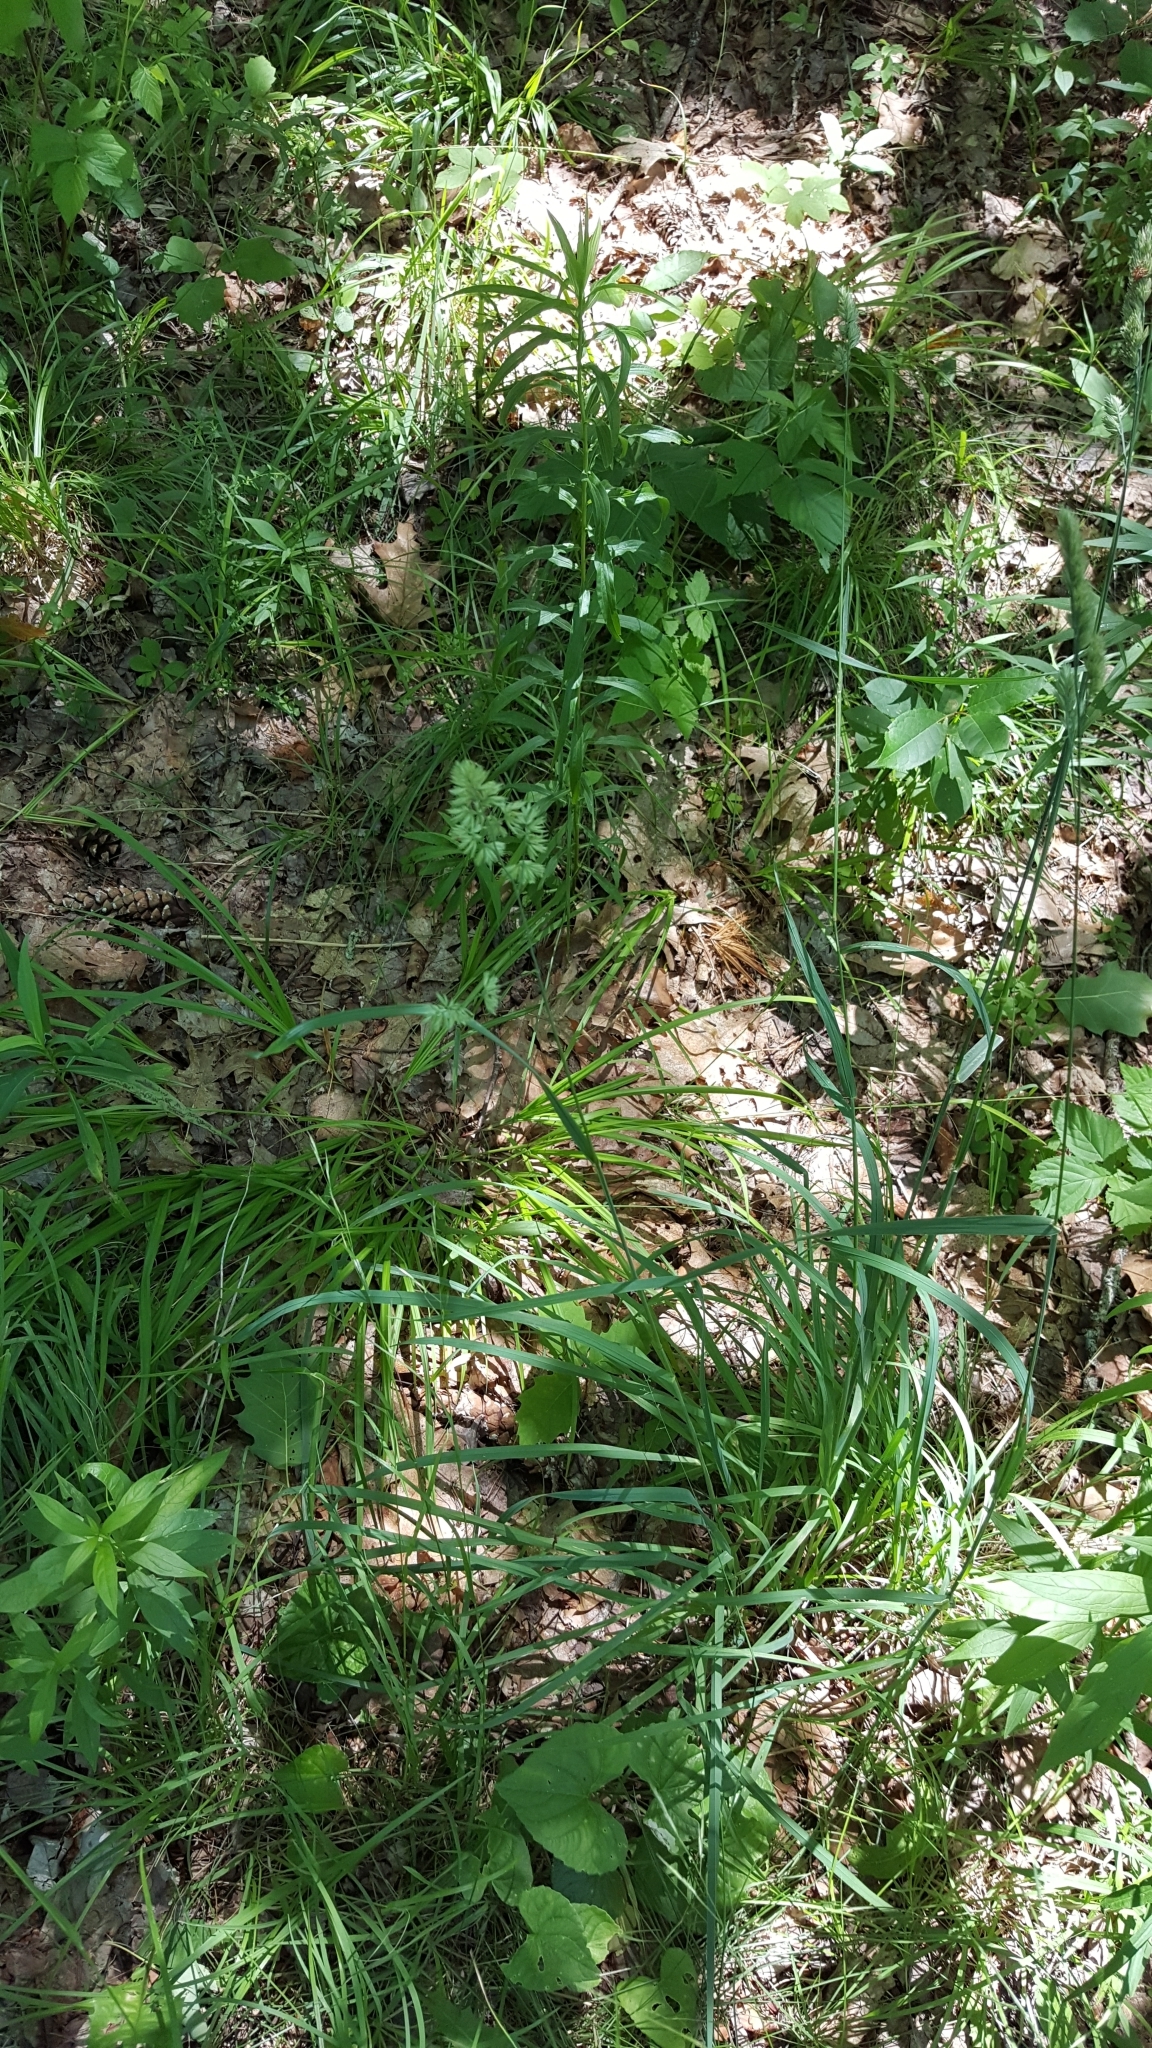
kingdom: Plantae
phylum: Tracheophyta
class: Liliopsida
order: Poales
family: Poaceae
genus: Dactylis
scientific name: Dactylis glomerata
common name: Orchardgrass
